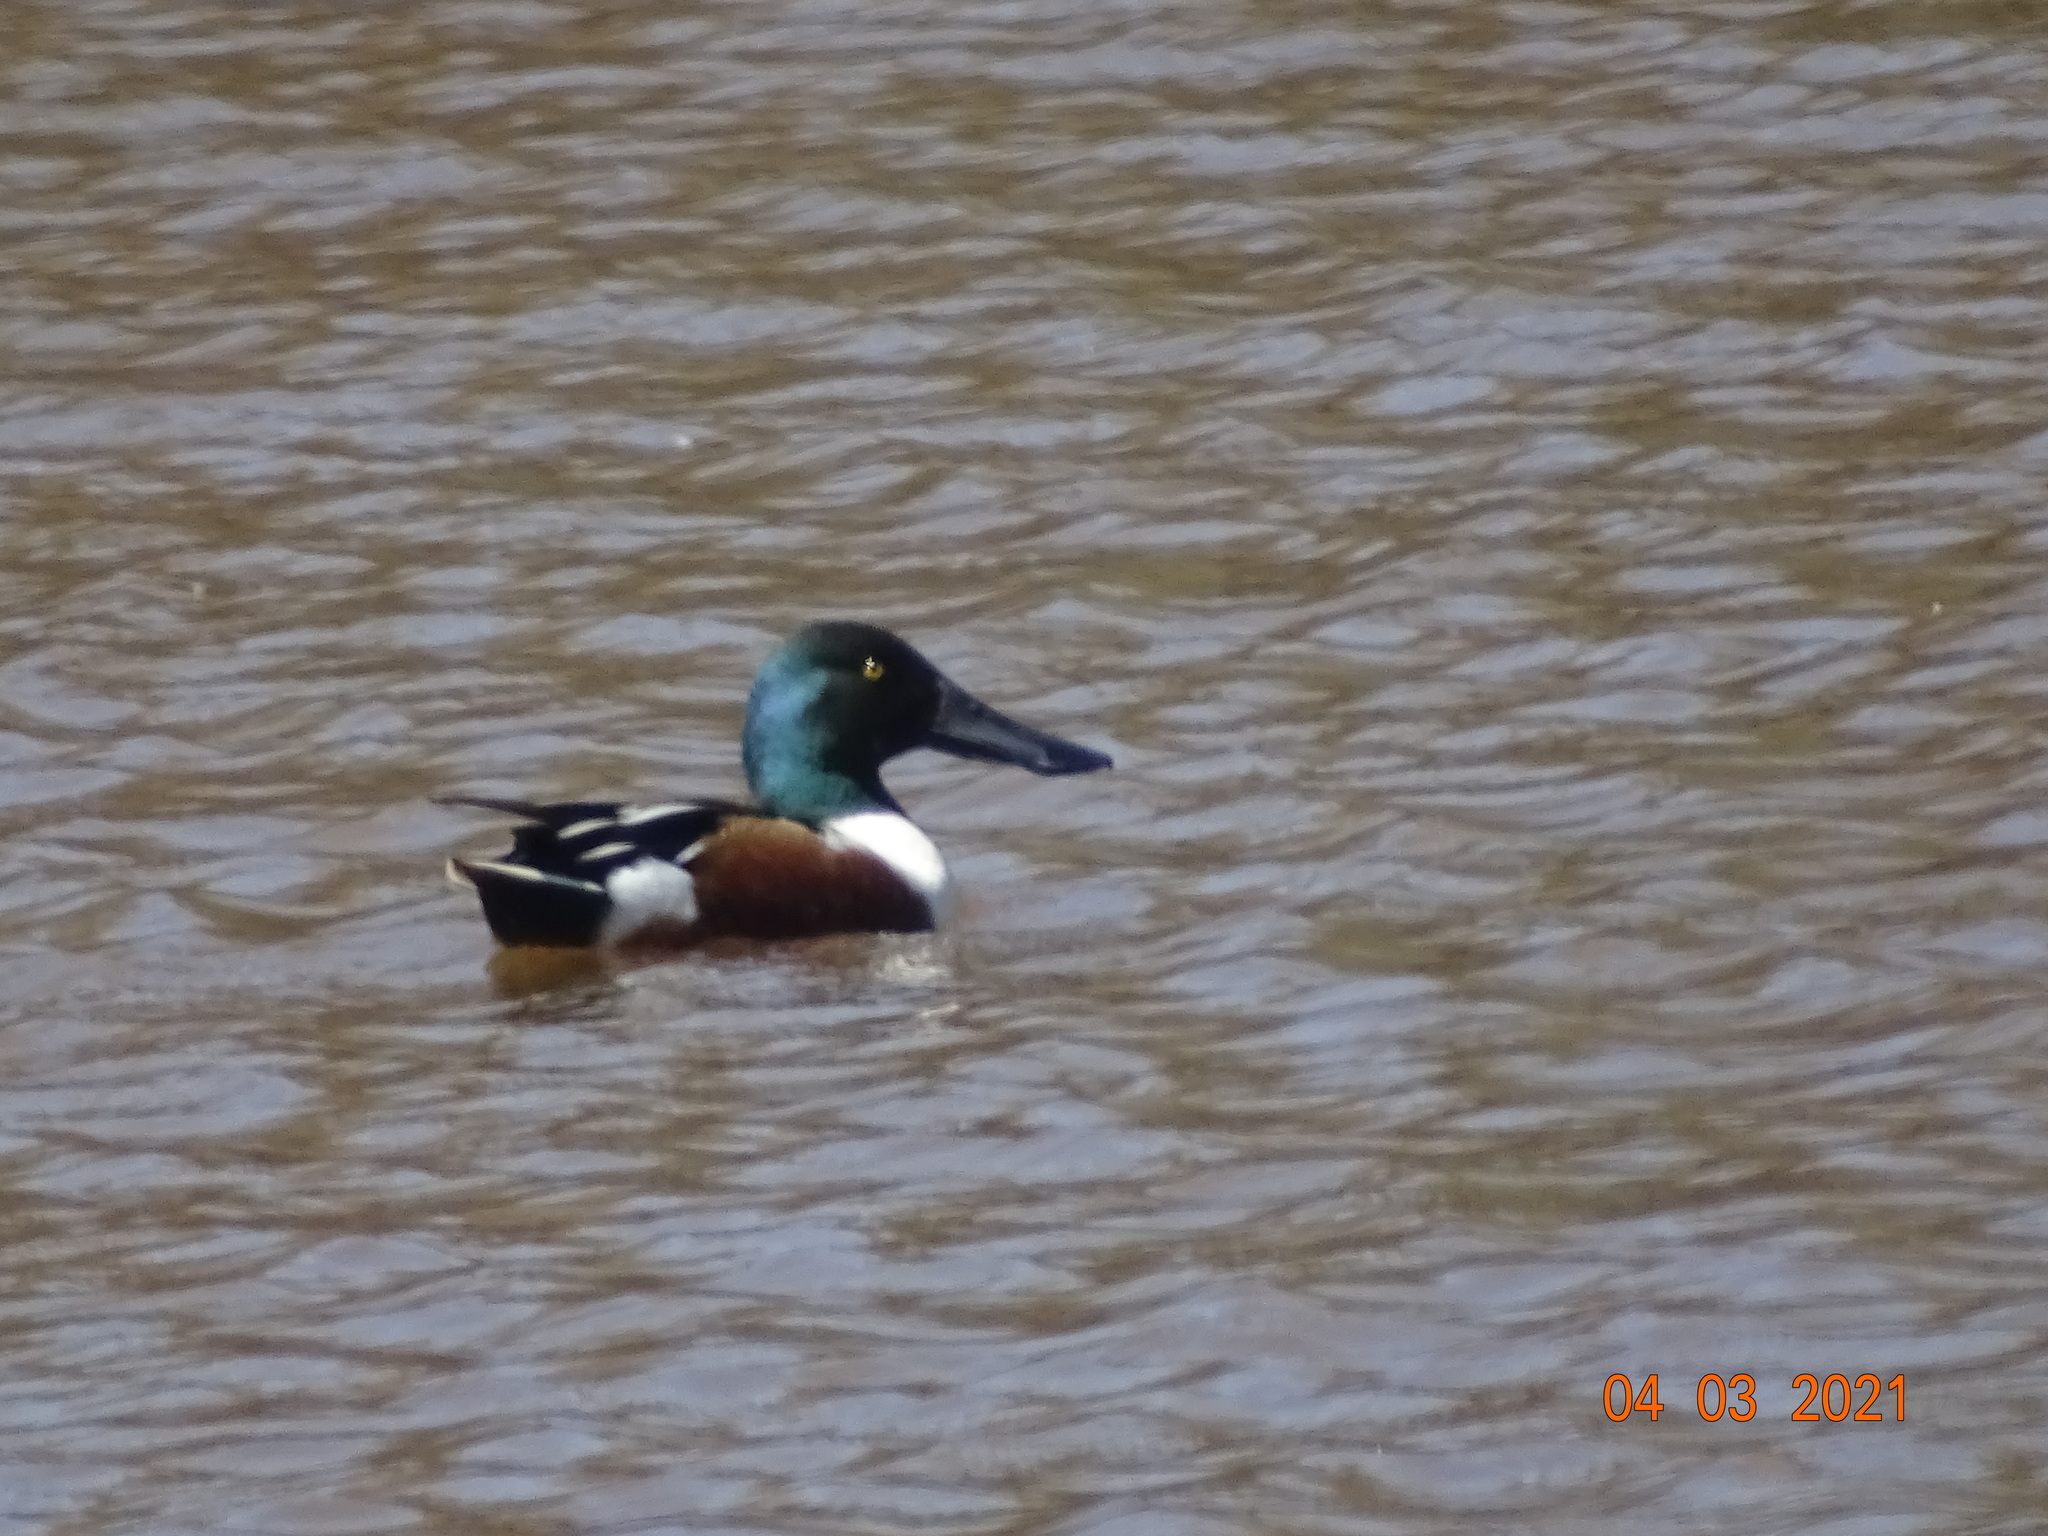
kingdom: Animalia
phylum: Chordata
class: Aves
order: Anseriformes
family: Anatidae
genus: Spatula
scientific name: Spatula clypeata
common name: Northern shoveler
